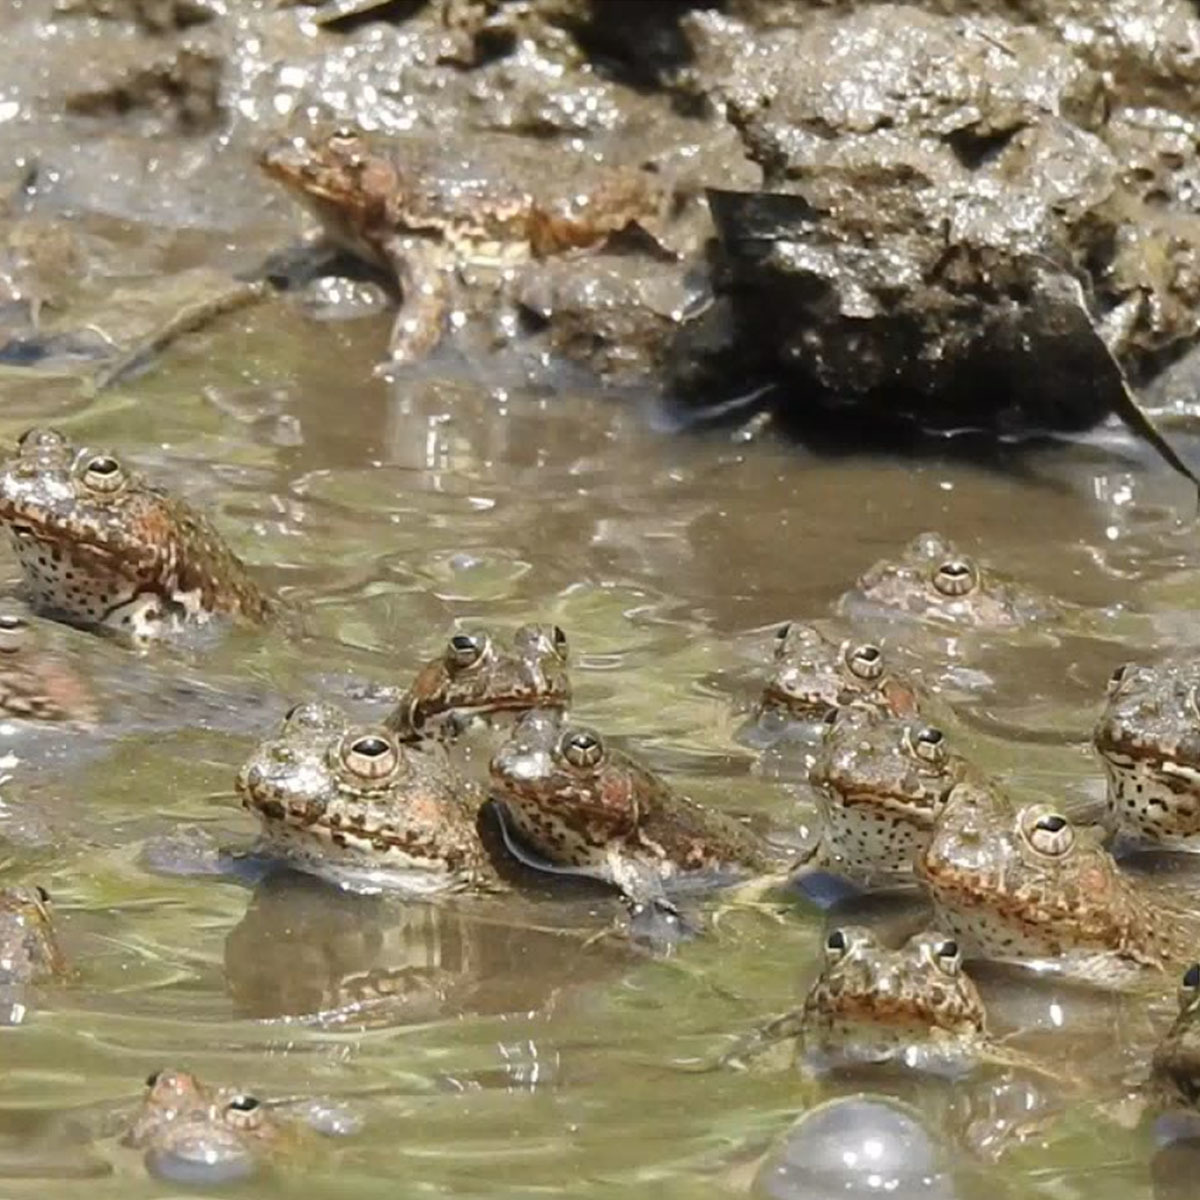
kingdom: Animalia
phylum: Chordata
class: Amphibia
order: Anura
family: Dicroglossidae
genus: Euphlyctis
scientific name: Euphlyctis cyanophlyctis
